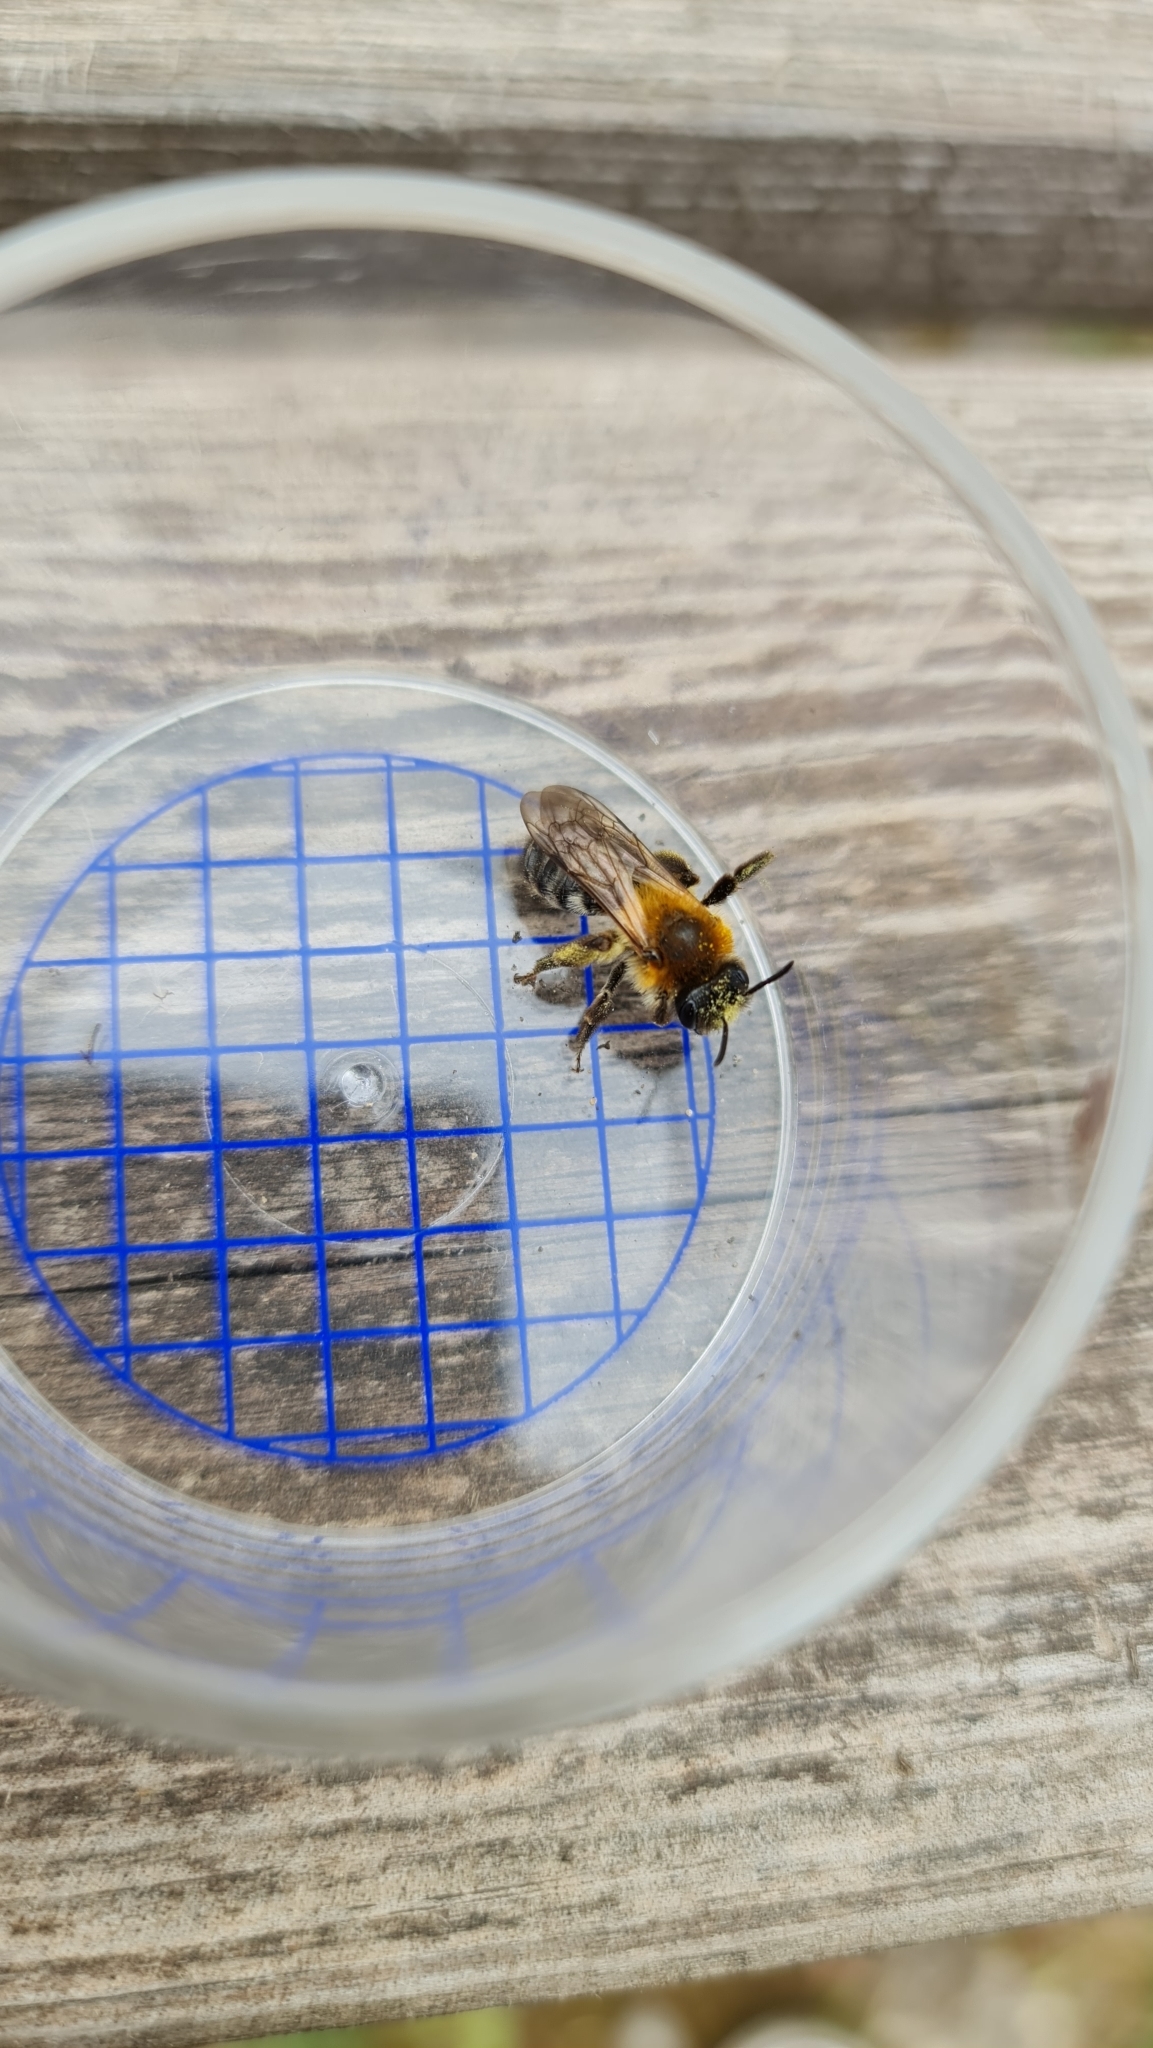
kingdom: Animalia
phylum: Arthropoda
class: Insecta
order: Hymenoptera
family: Andrenidae
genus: Andrena
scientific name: Andrena nitida
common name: Grey-patched mining bee
